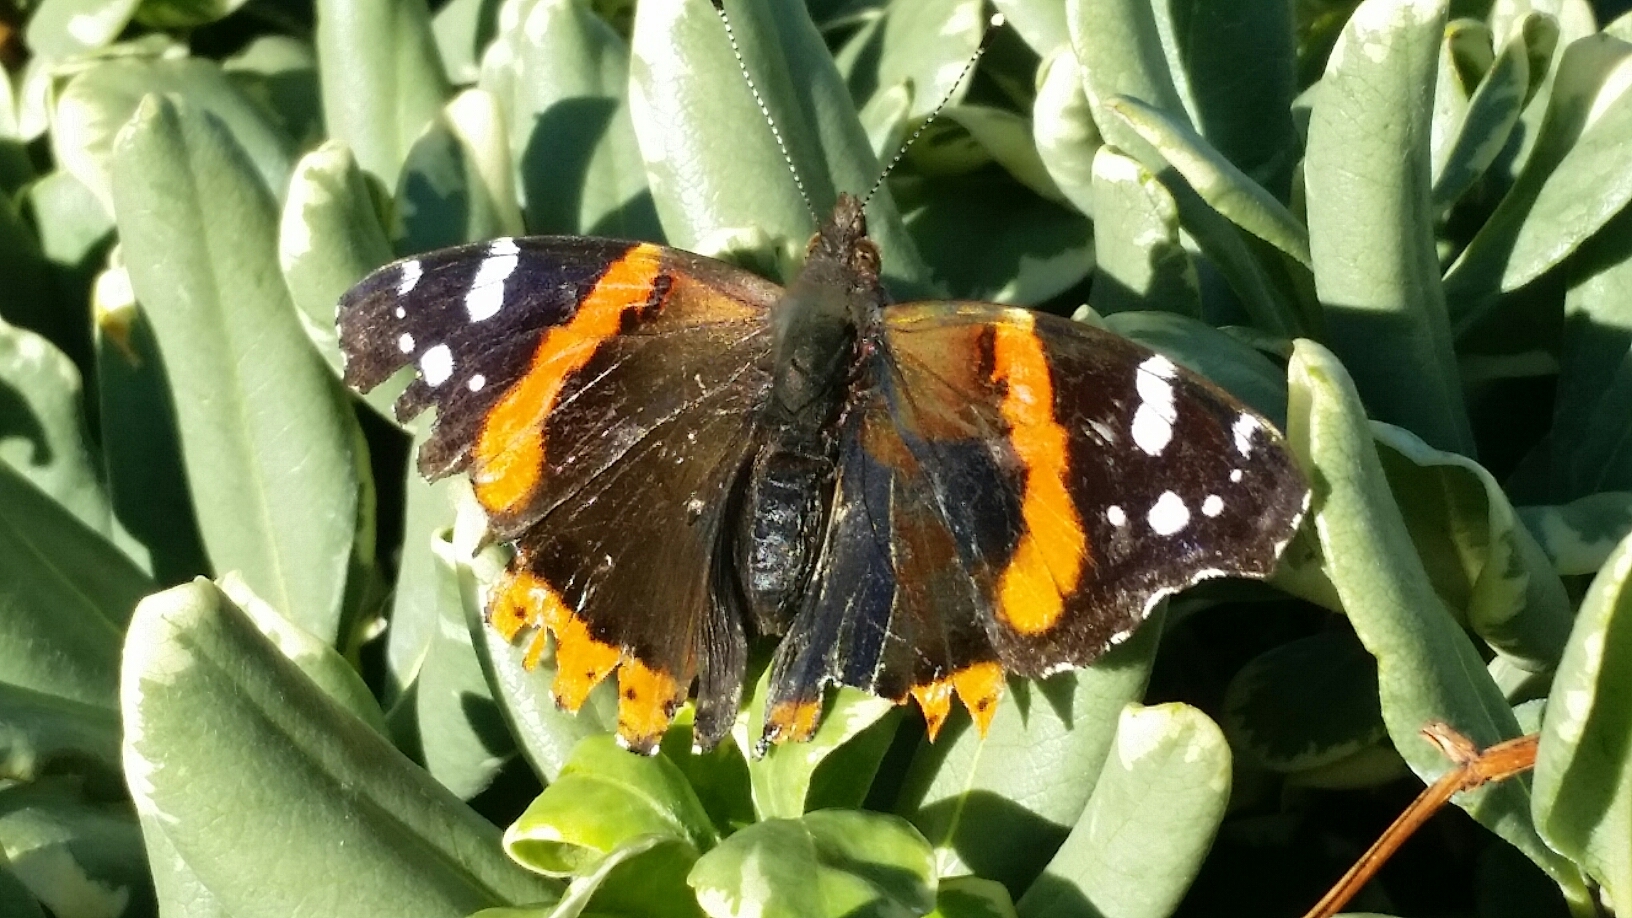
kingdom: Animalia
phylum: Arthropoda
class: Insecta
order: Lepidoptera
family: Nymphalidae
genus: Vanessa
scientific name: Vanessa atalanta
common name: Red admiral
